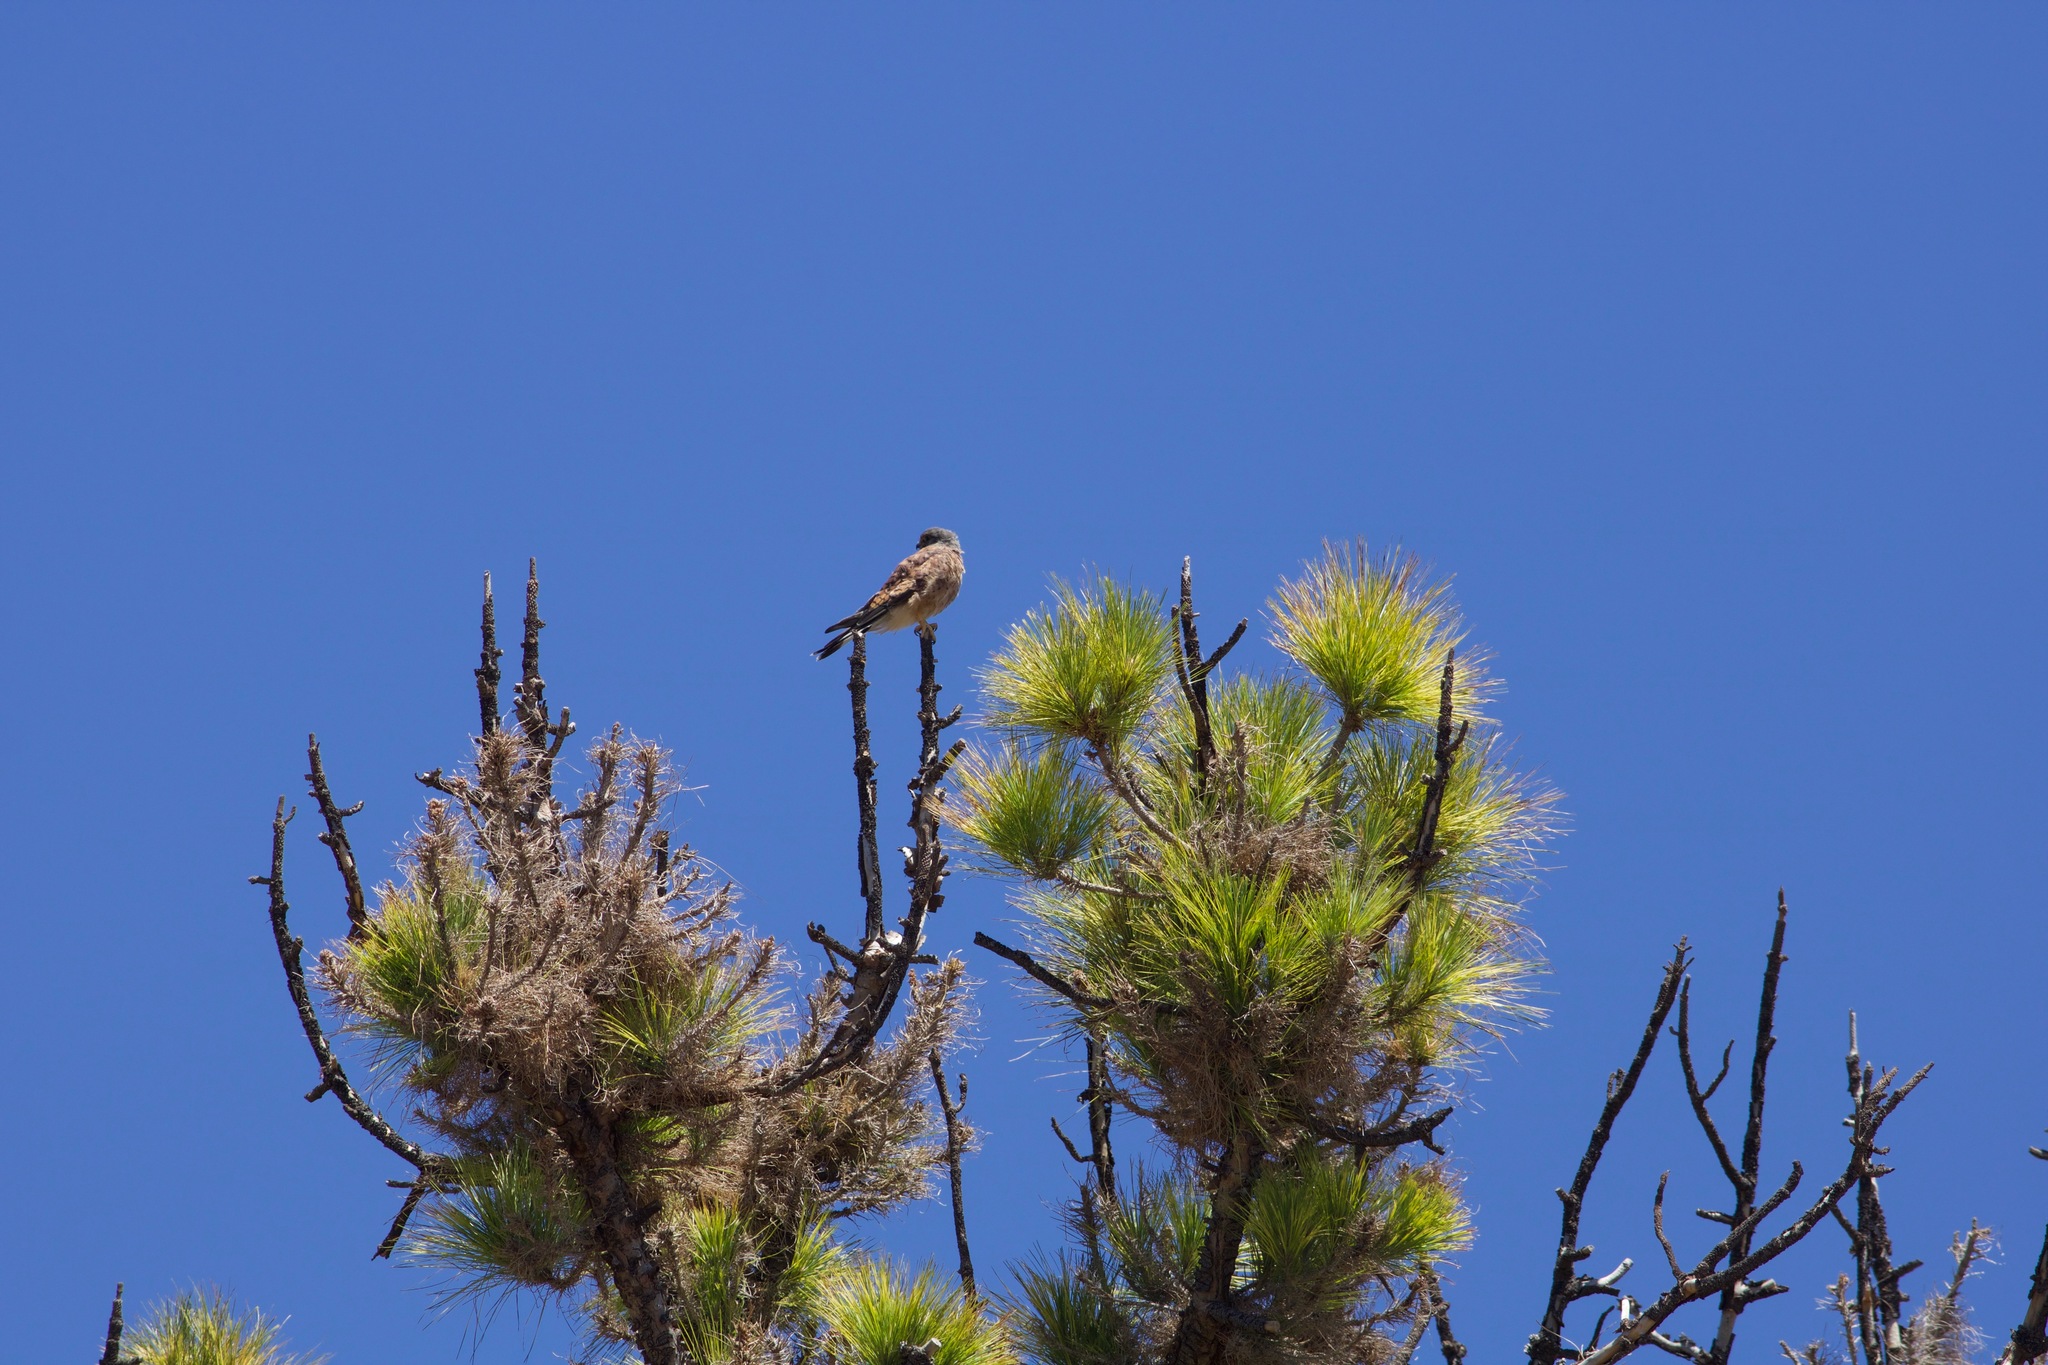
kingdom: Animalia
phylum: Chordata
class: Aves
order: Falconiformes
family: Falconidae
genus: Falco
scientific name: Falco tinnunculus
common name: Common kestrel
